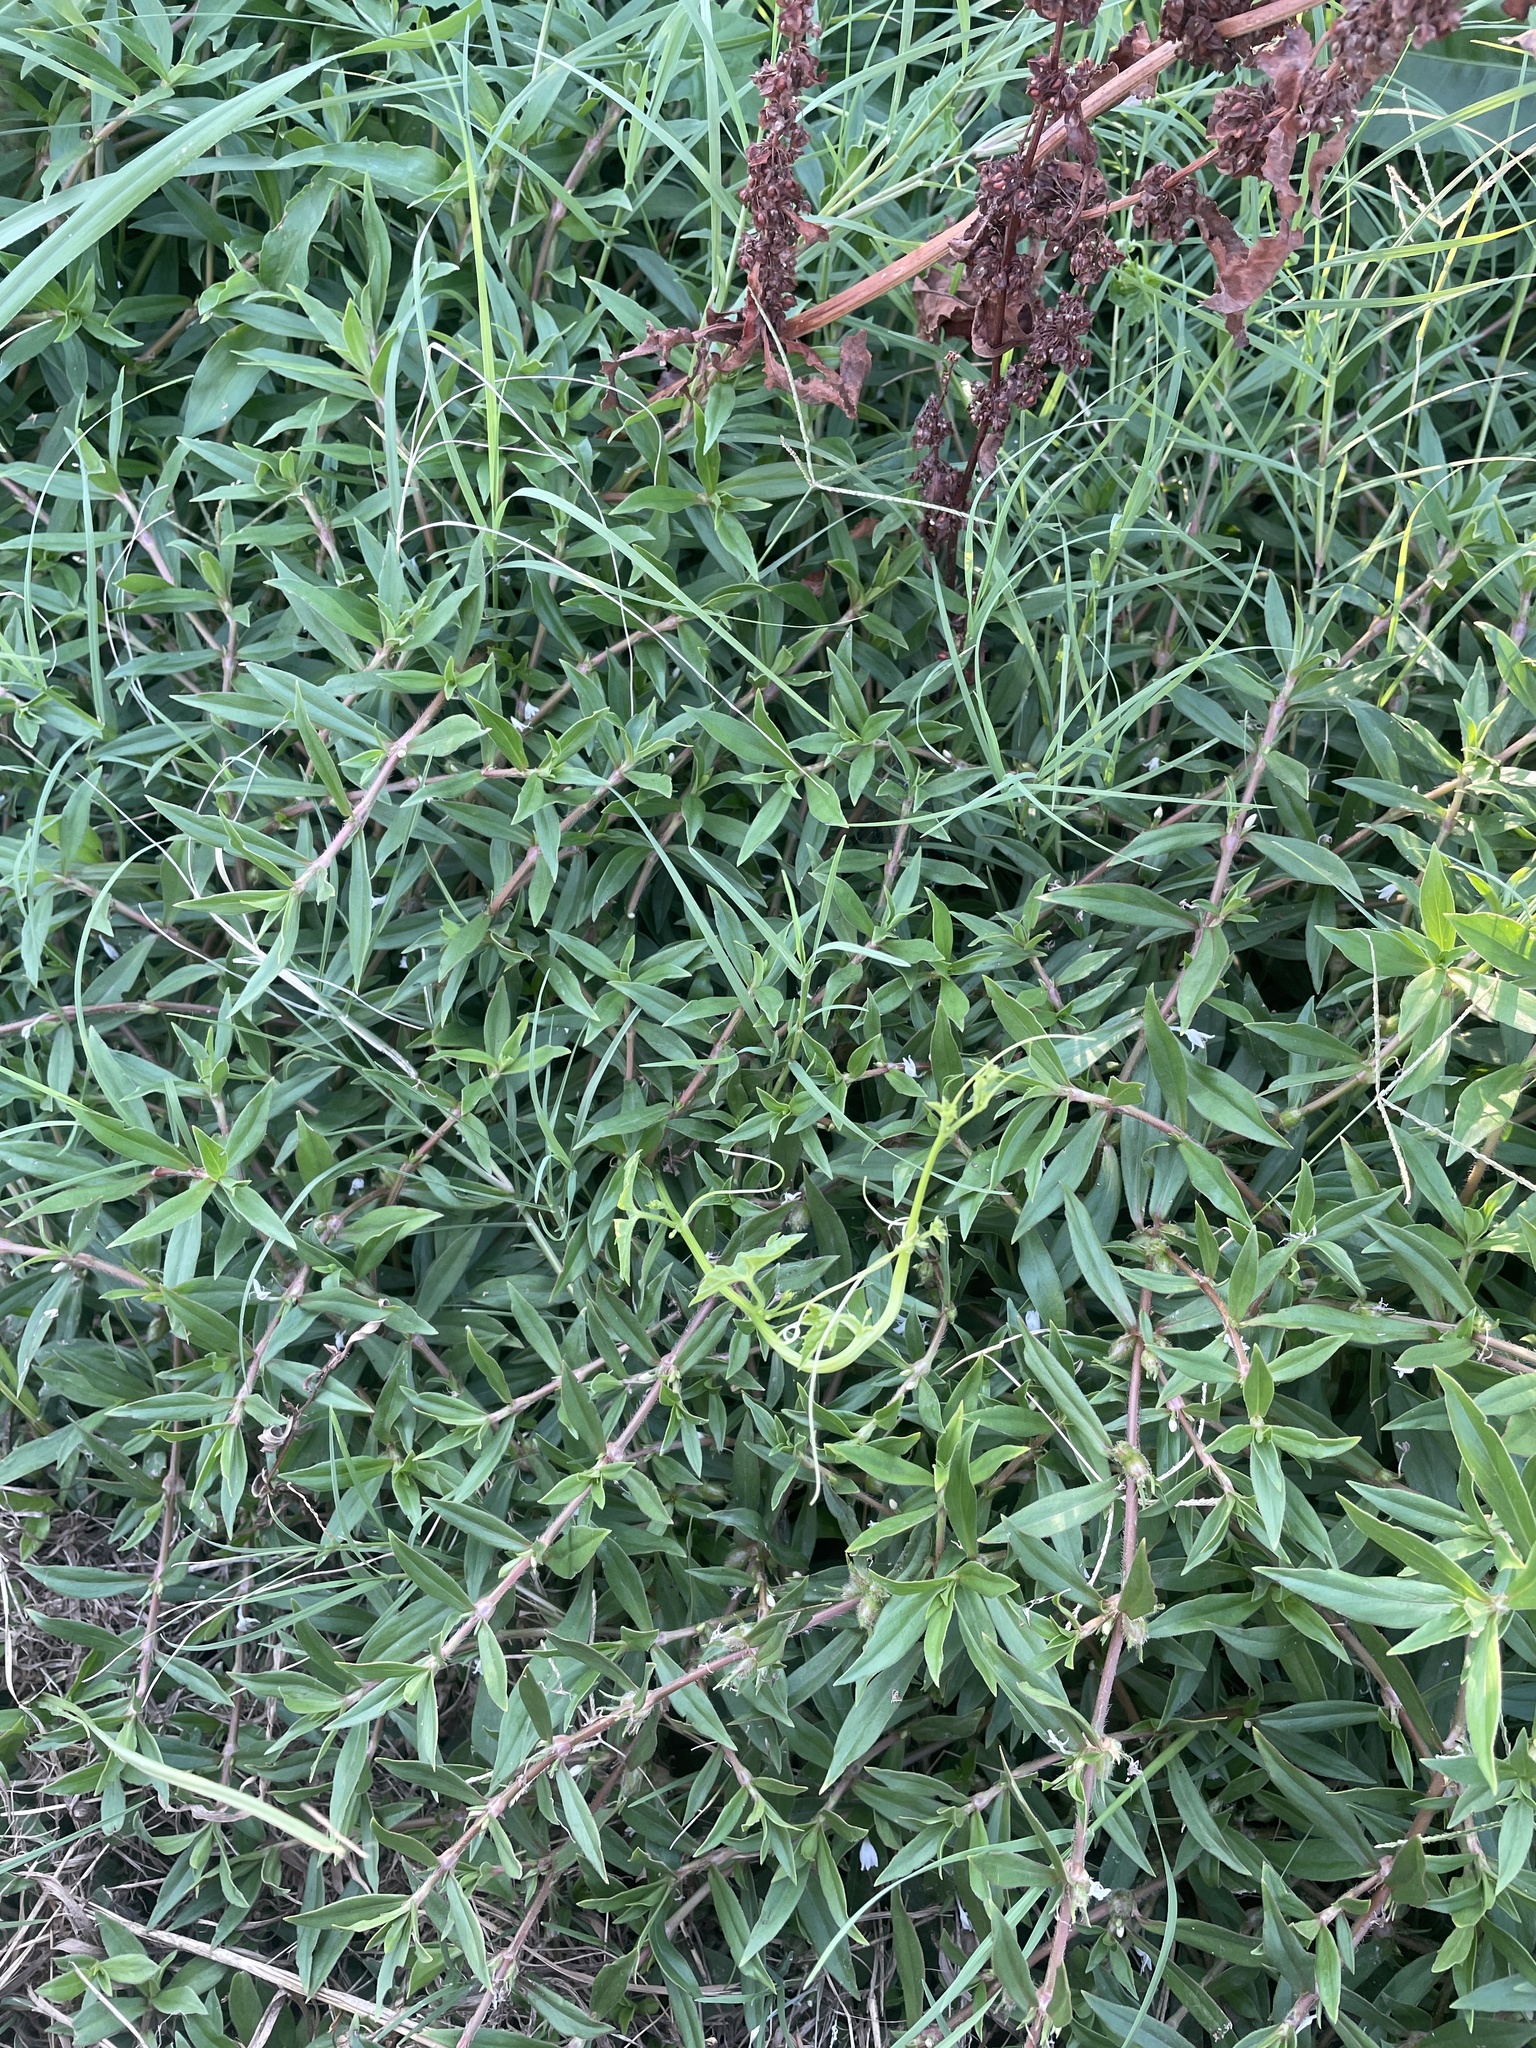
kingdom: Plantae
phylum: Tracheophyta
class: Magnoliopsida
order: Gentianales
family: Rubiaceae
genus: Diodia
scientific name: Diodia virginiana
